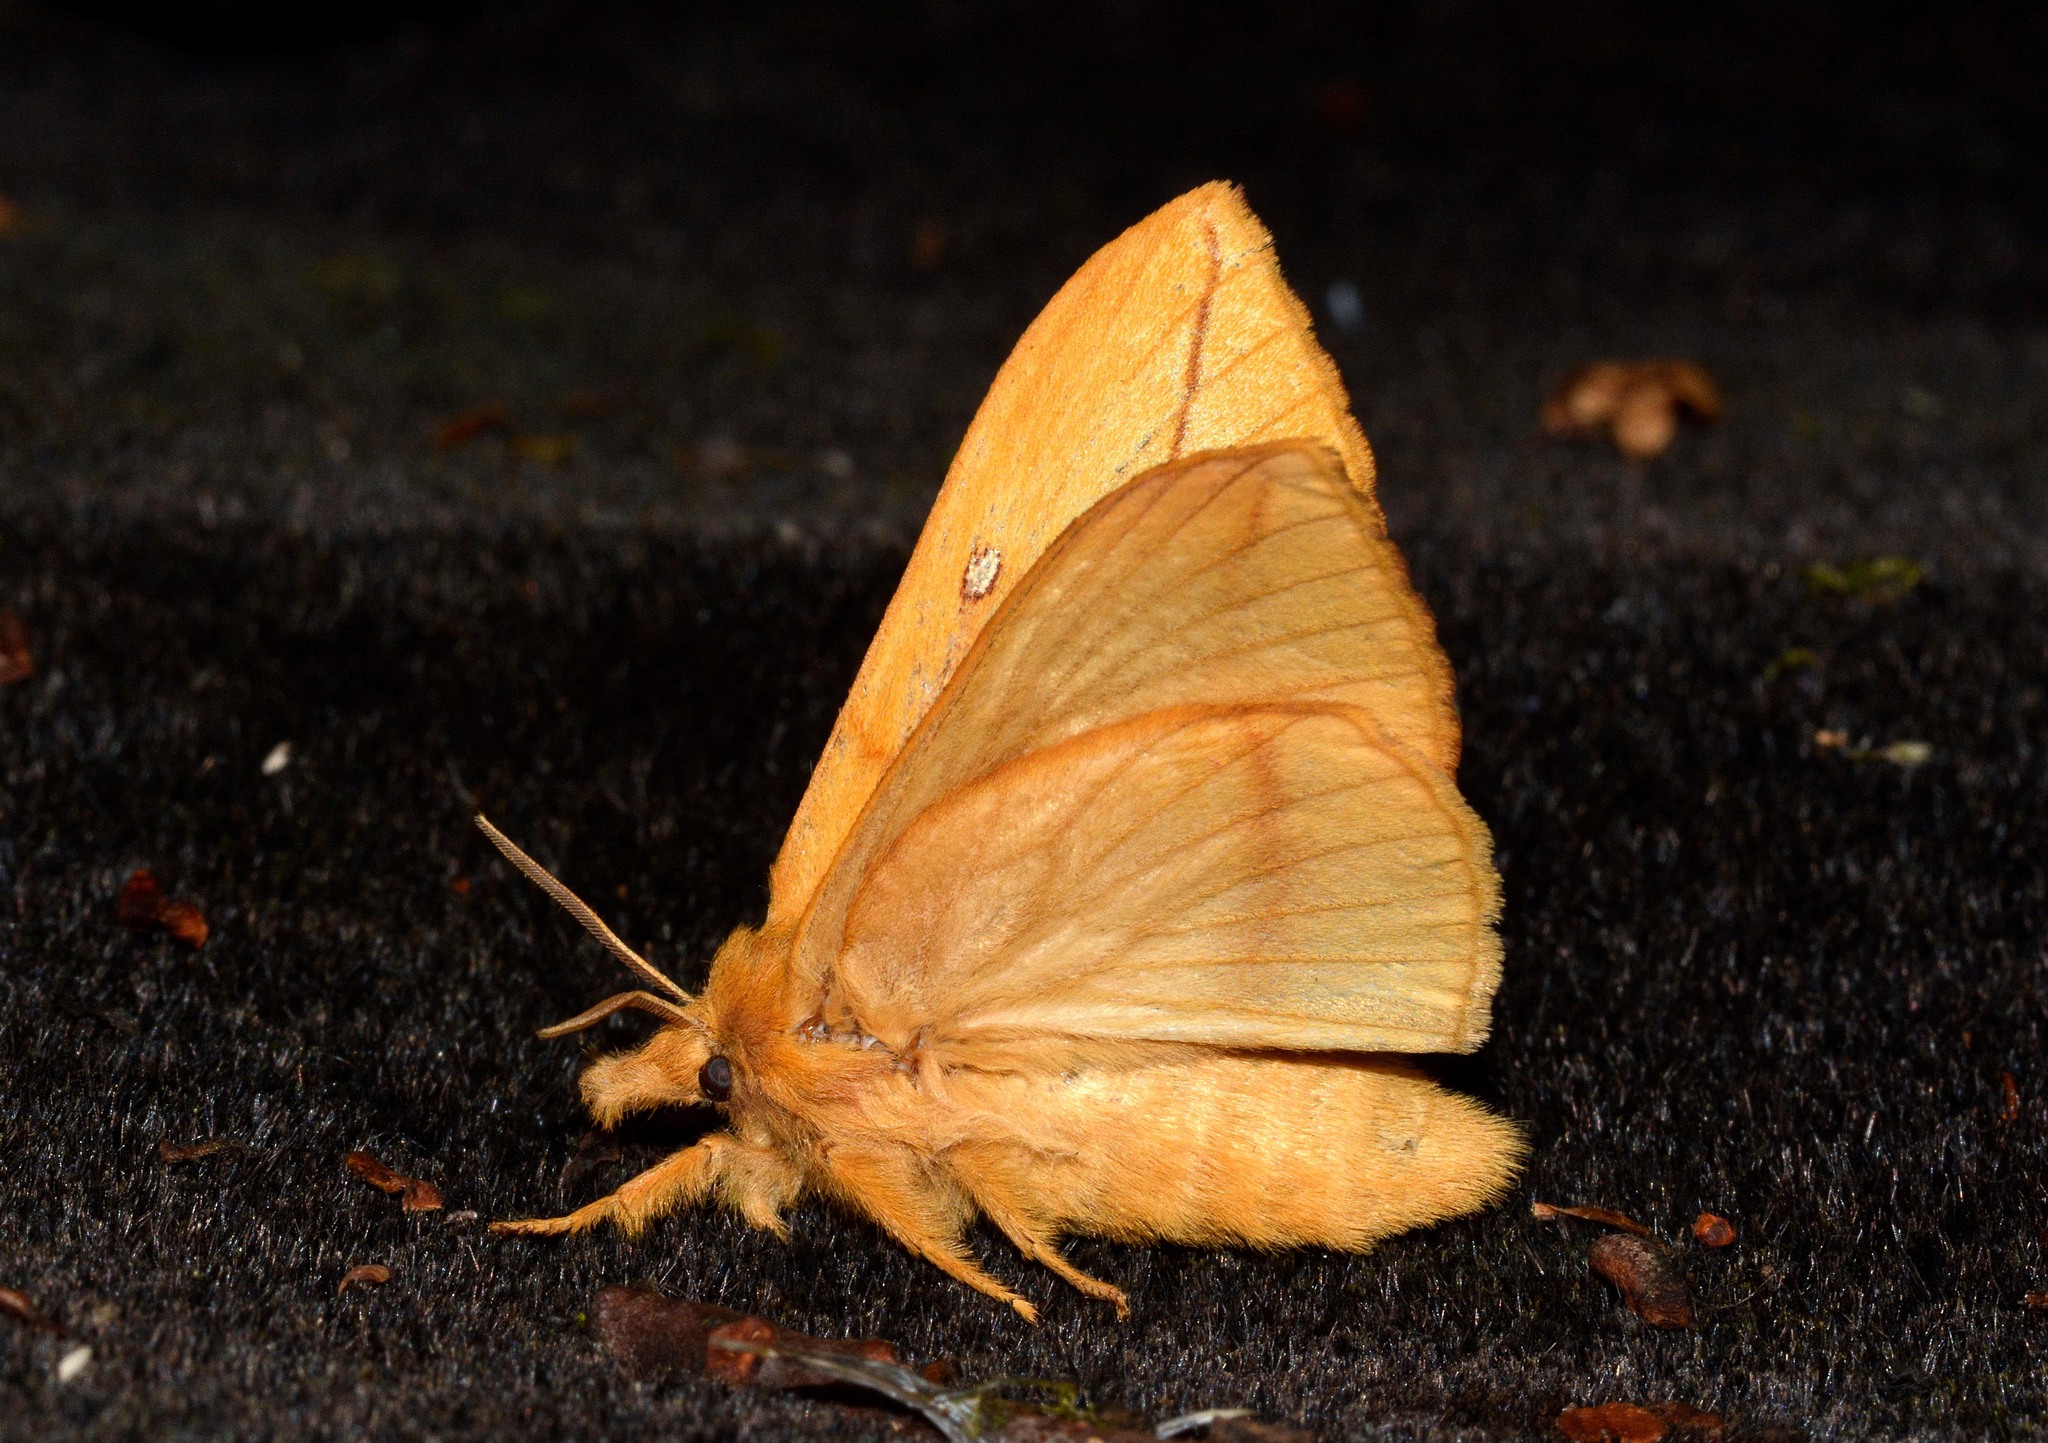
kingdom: Animalia
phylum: Arthropoda
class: Insecta
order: Lepidoptera
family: Lasiocampidae
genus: Euthrix
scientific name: Euthrix potatoria
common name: Drinker
